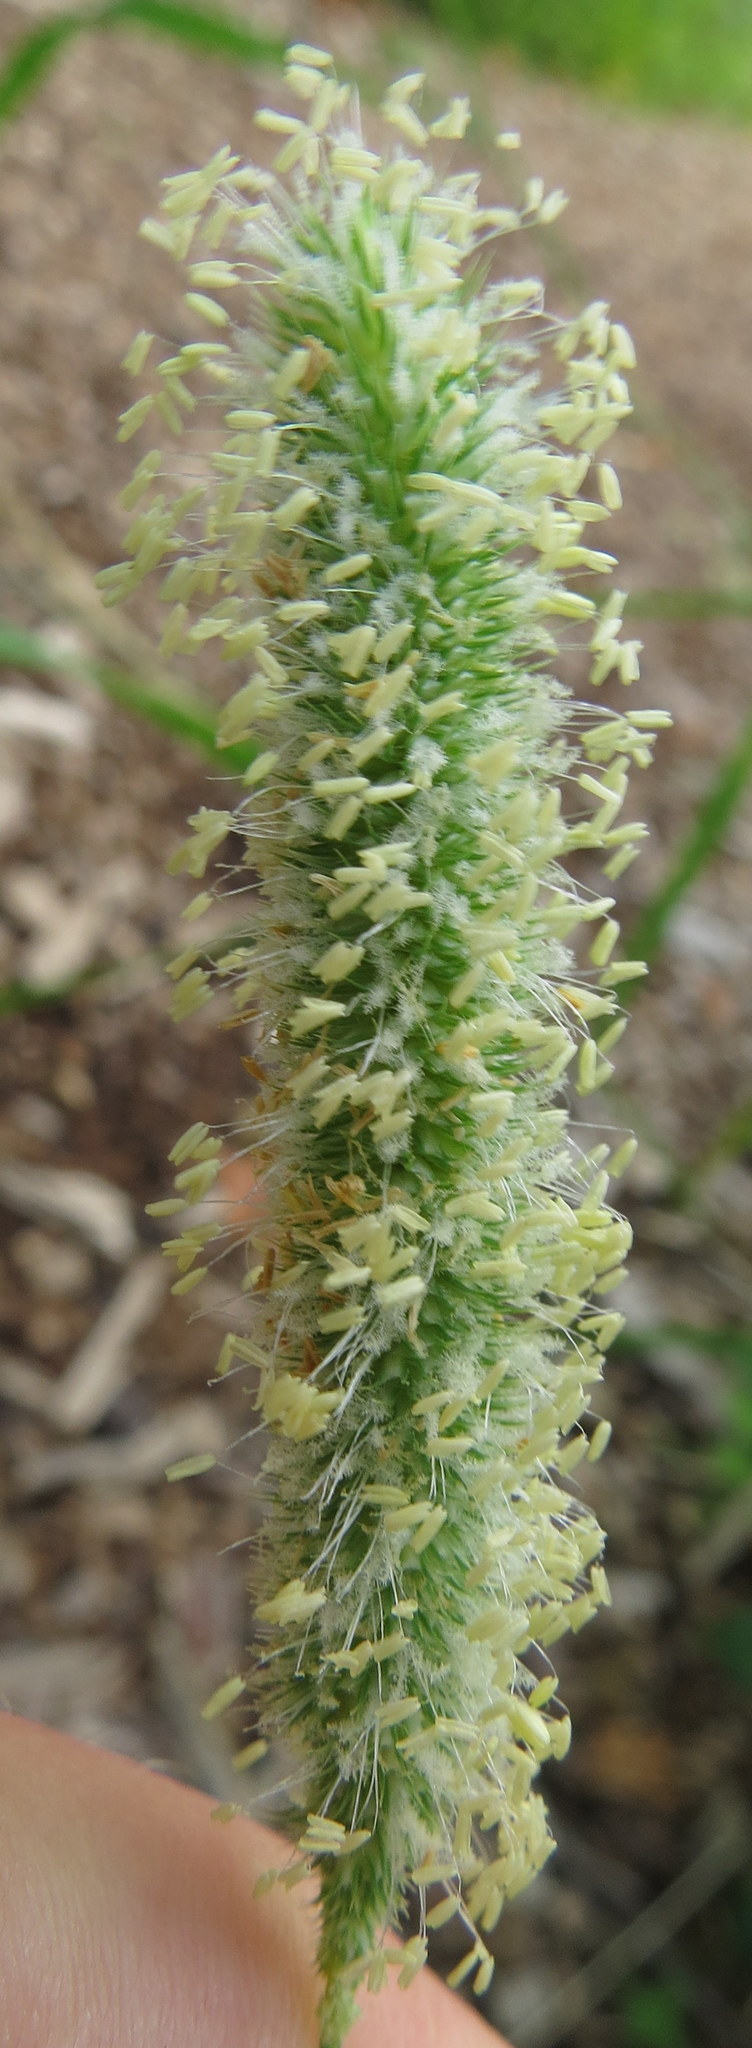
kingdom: Plantae
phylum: Tracheophyta
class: Liliopsida
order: Poales
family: Poaceae
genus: Phleum
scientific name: Phleum pratense
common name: Timothy grass
